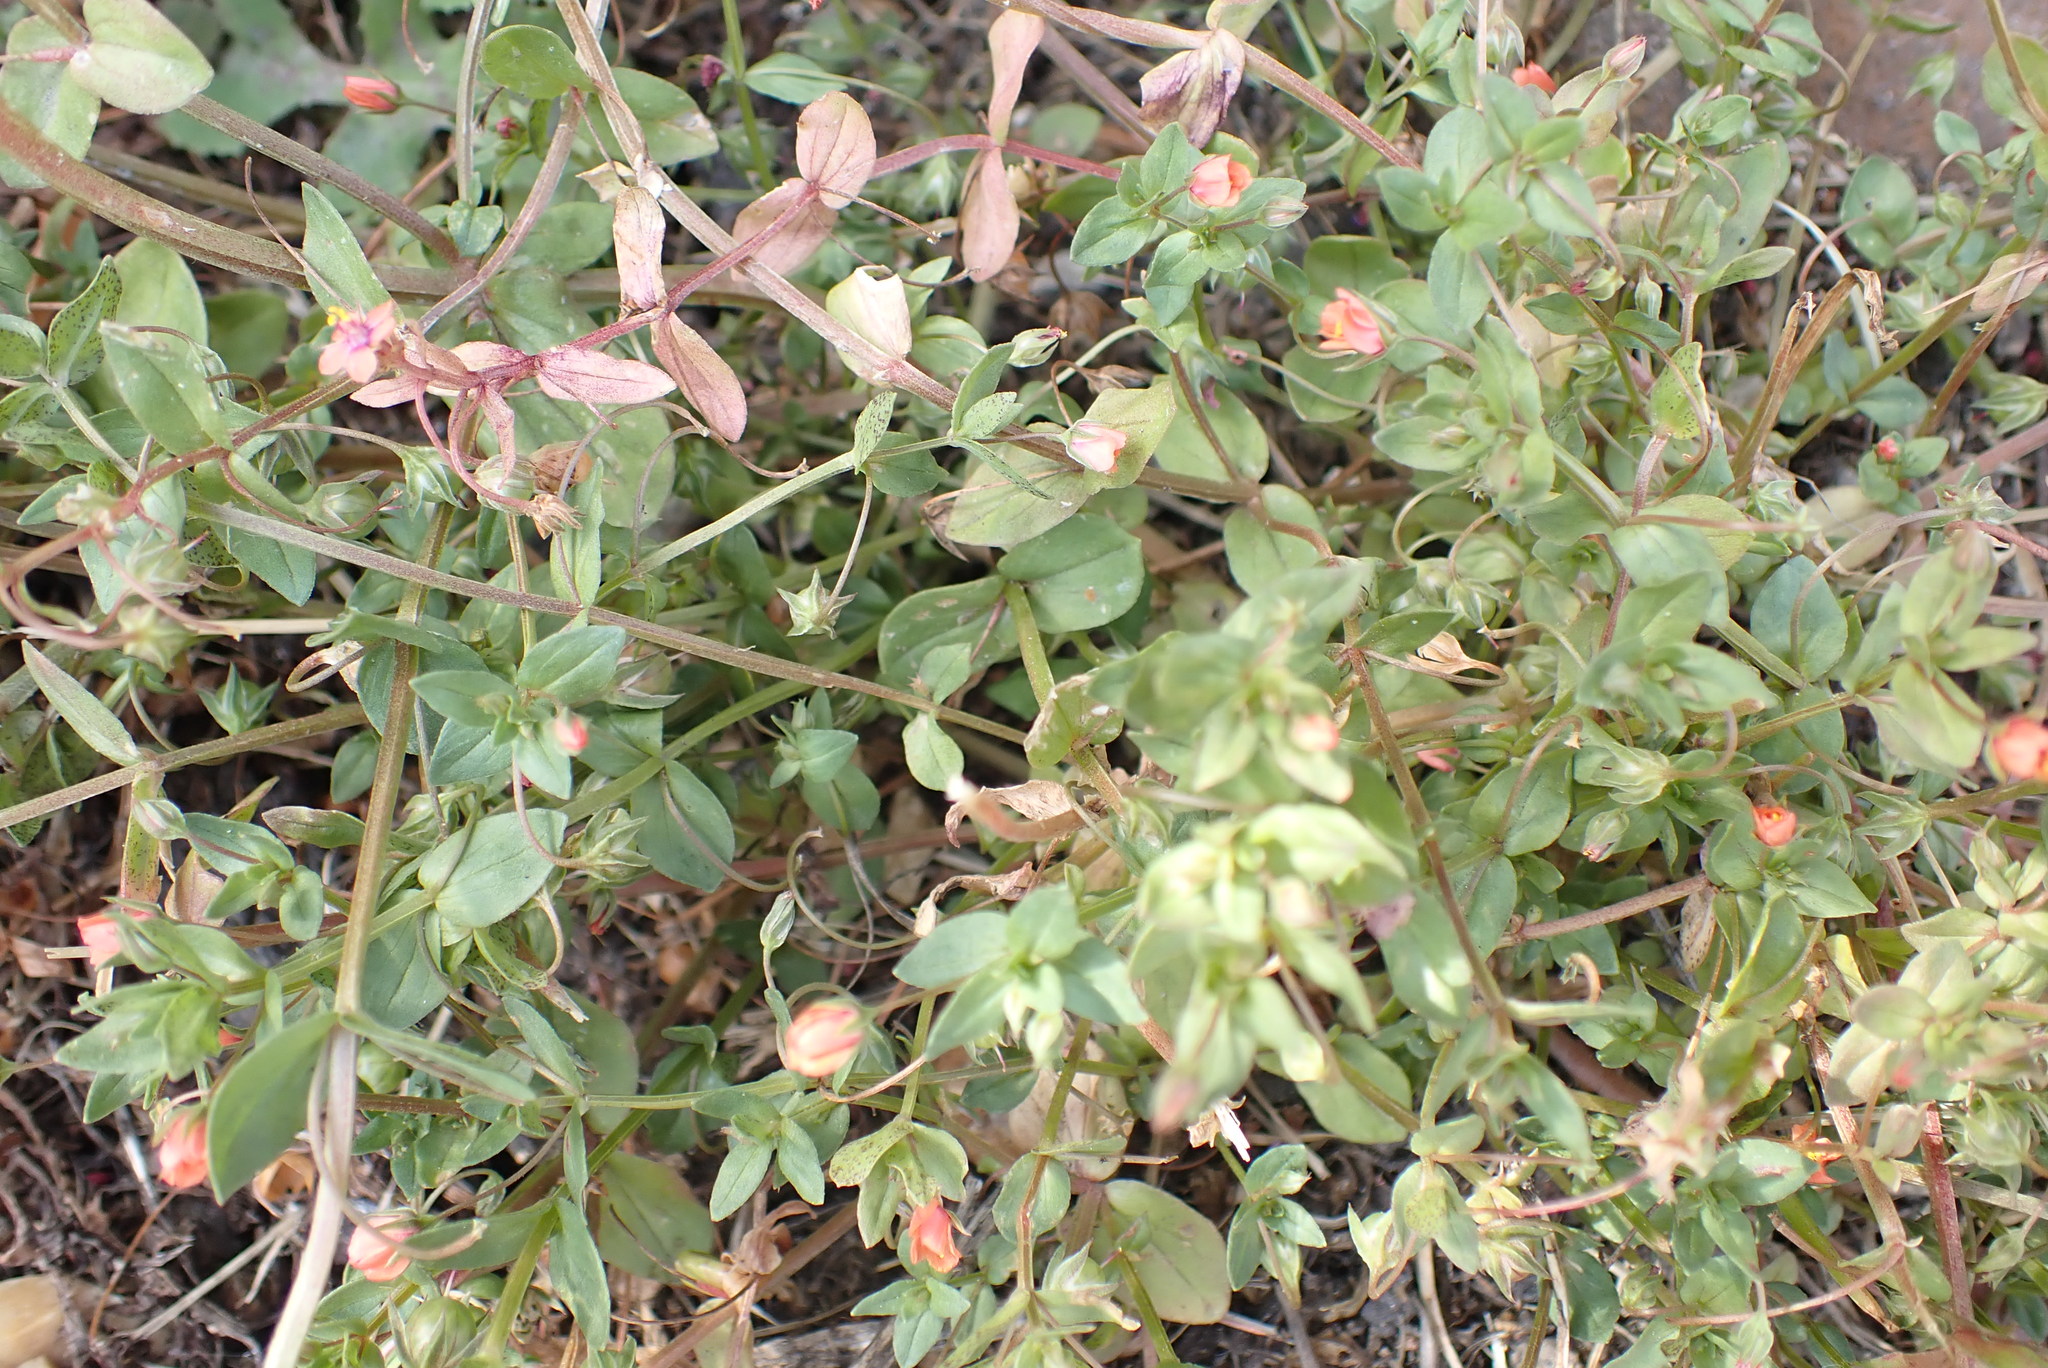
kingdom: Plantae
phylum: Tracheophyta
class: Magnoliopsida
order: Ericales
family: Primulaceae
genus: Lysimachia
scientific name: Lysimachia arvensis
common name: Scarlet pimpernel
